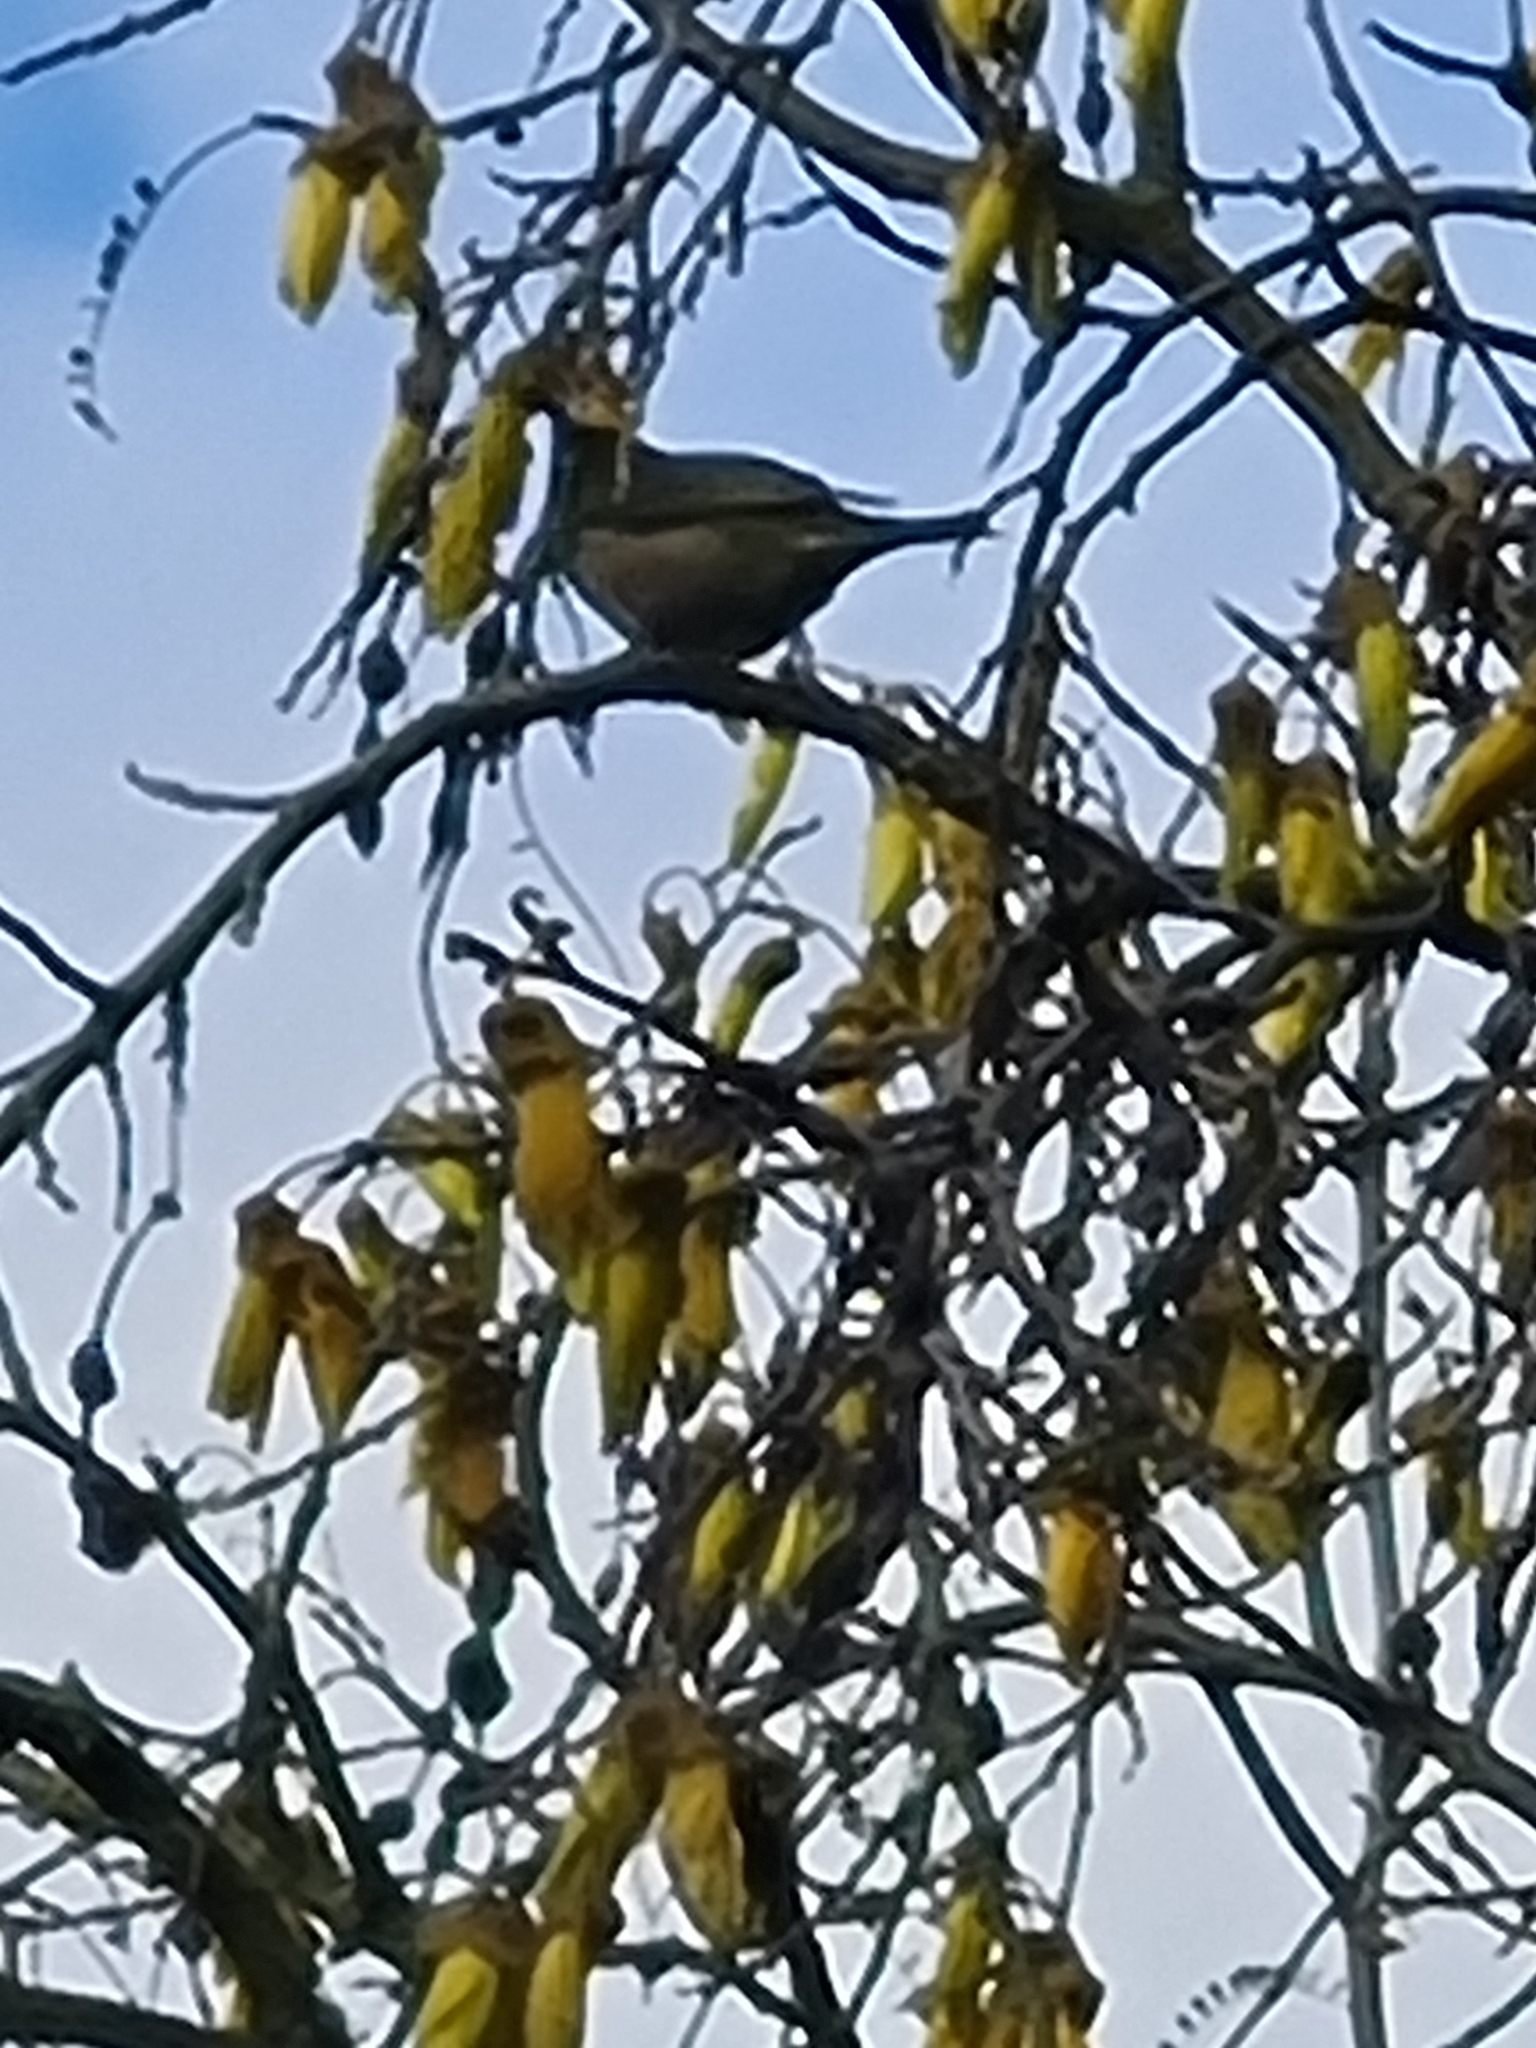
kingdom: Animalia
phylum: Chordata
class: Aves
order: Passeriformes
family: Zosteropidae
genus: Zosterops
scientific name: Zosterops lateralis
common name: Silvereye
